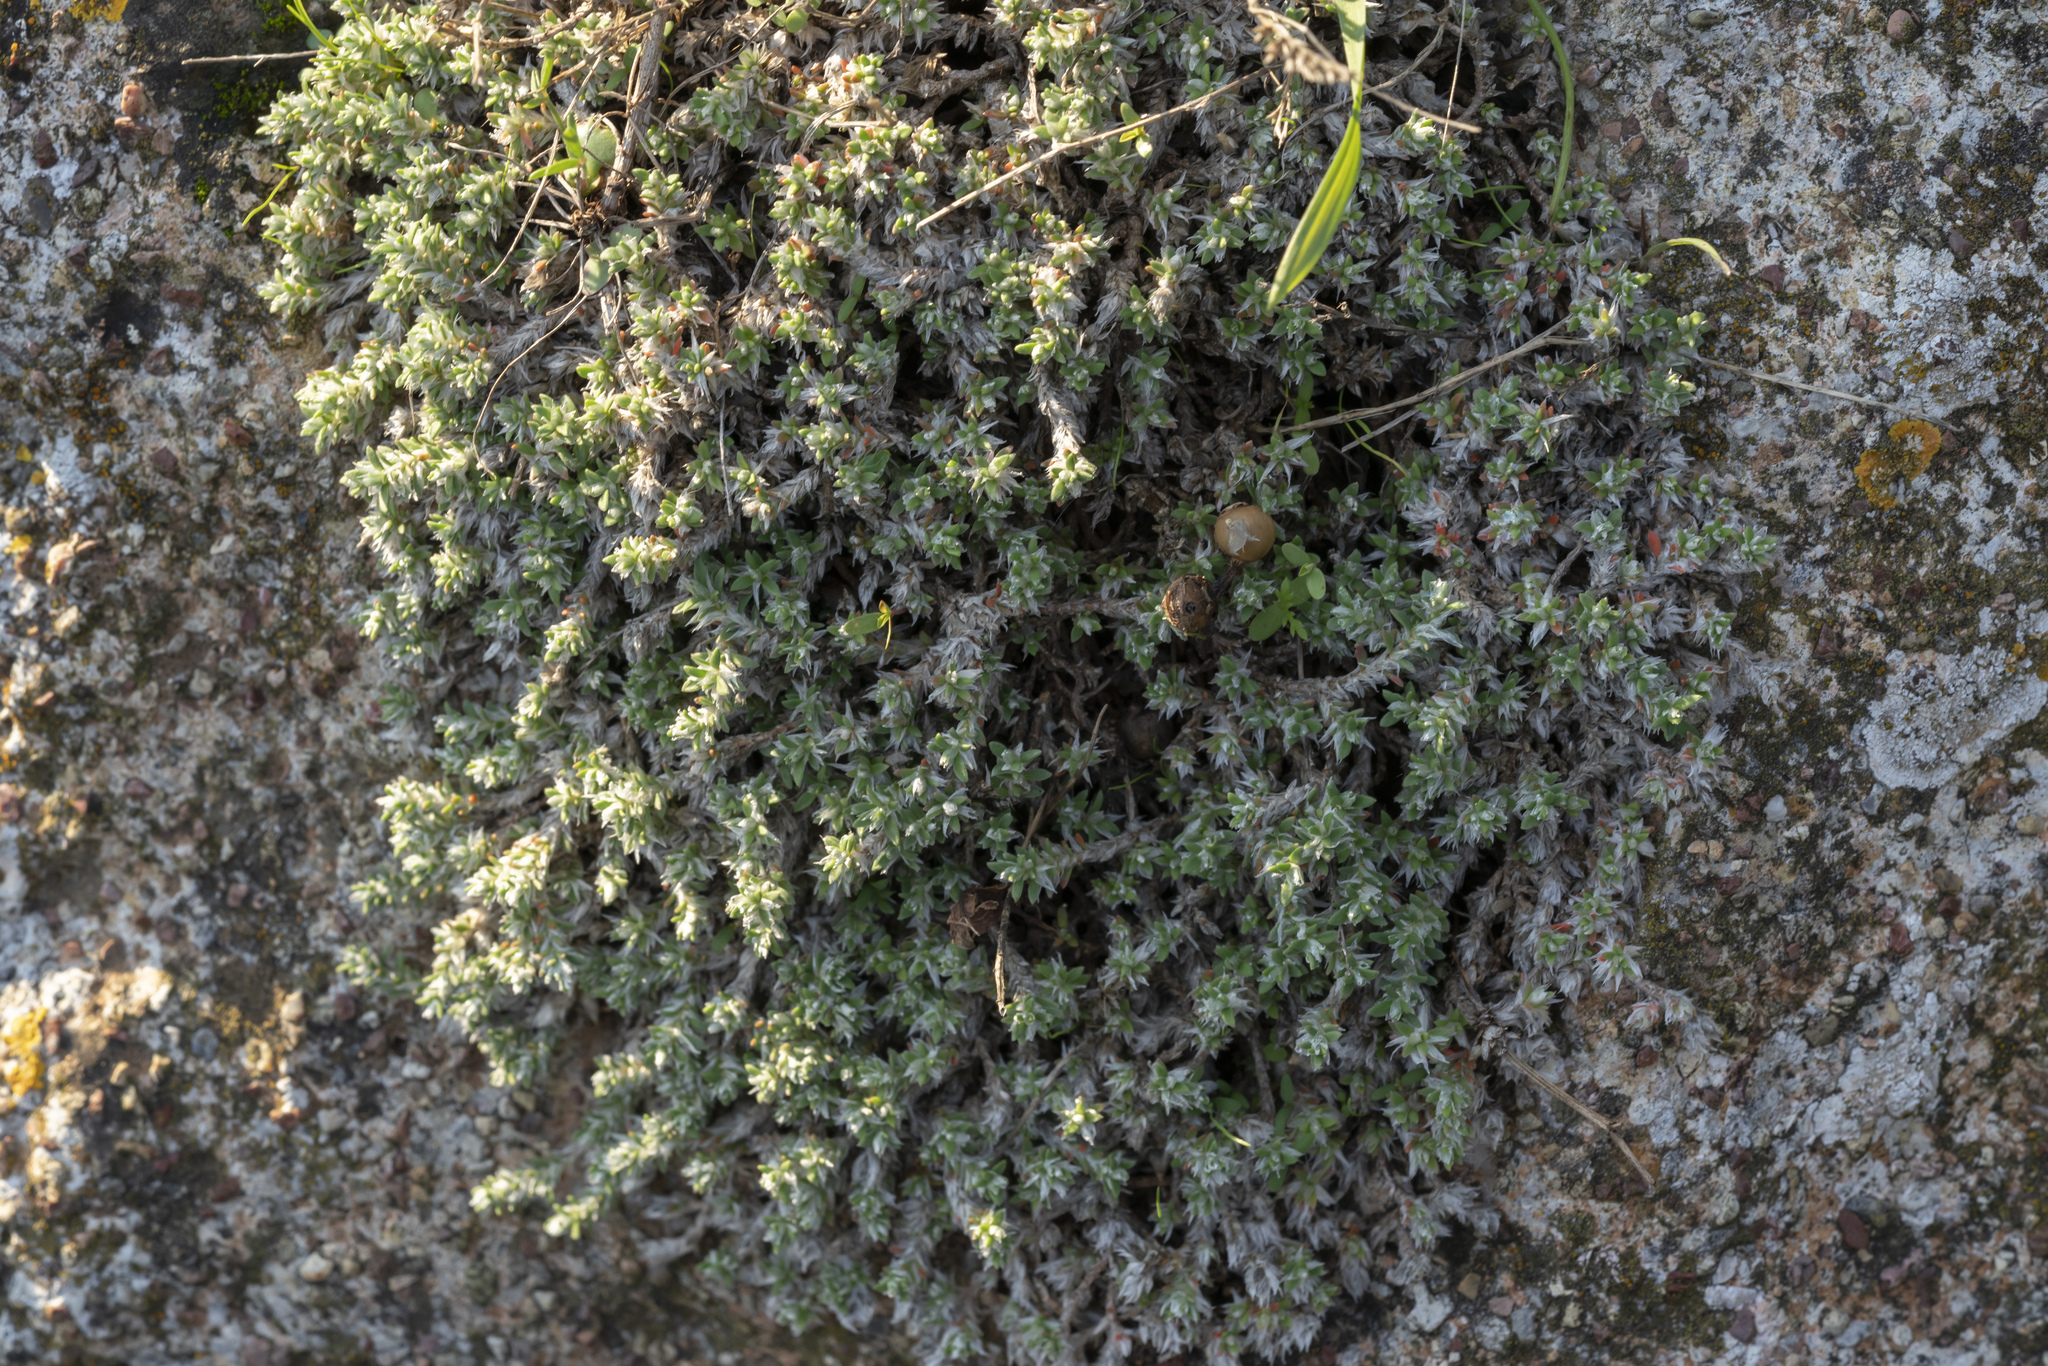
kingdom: Plantae
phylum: Tracheophyta
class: Magnoliopsida
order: Caryophyllales
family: Caryophyllaceae
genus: Paronychia
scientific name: Paronychia macrosepala
